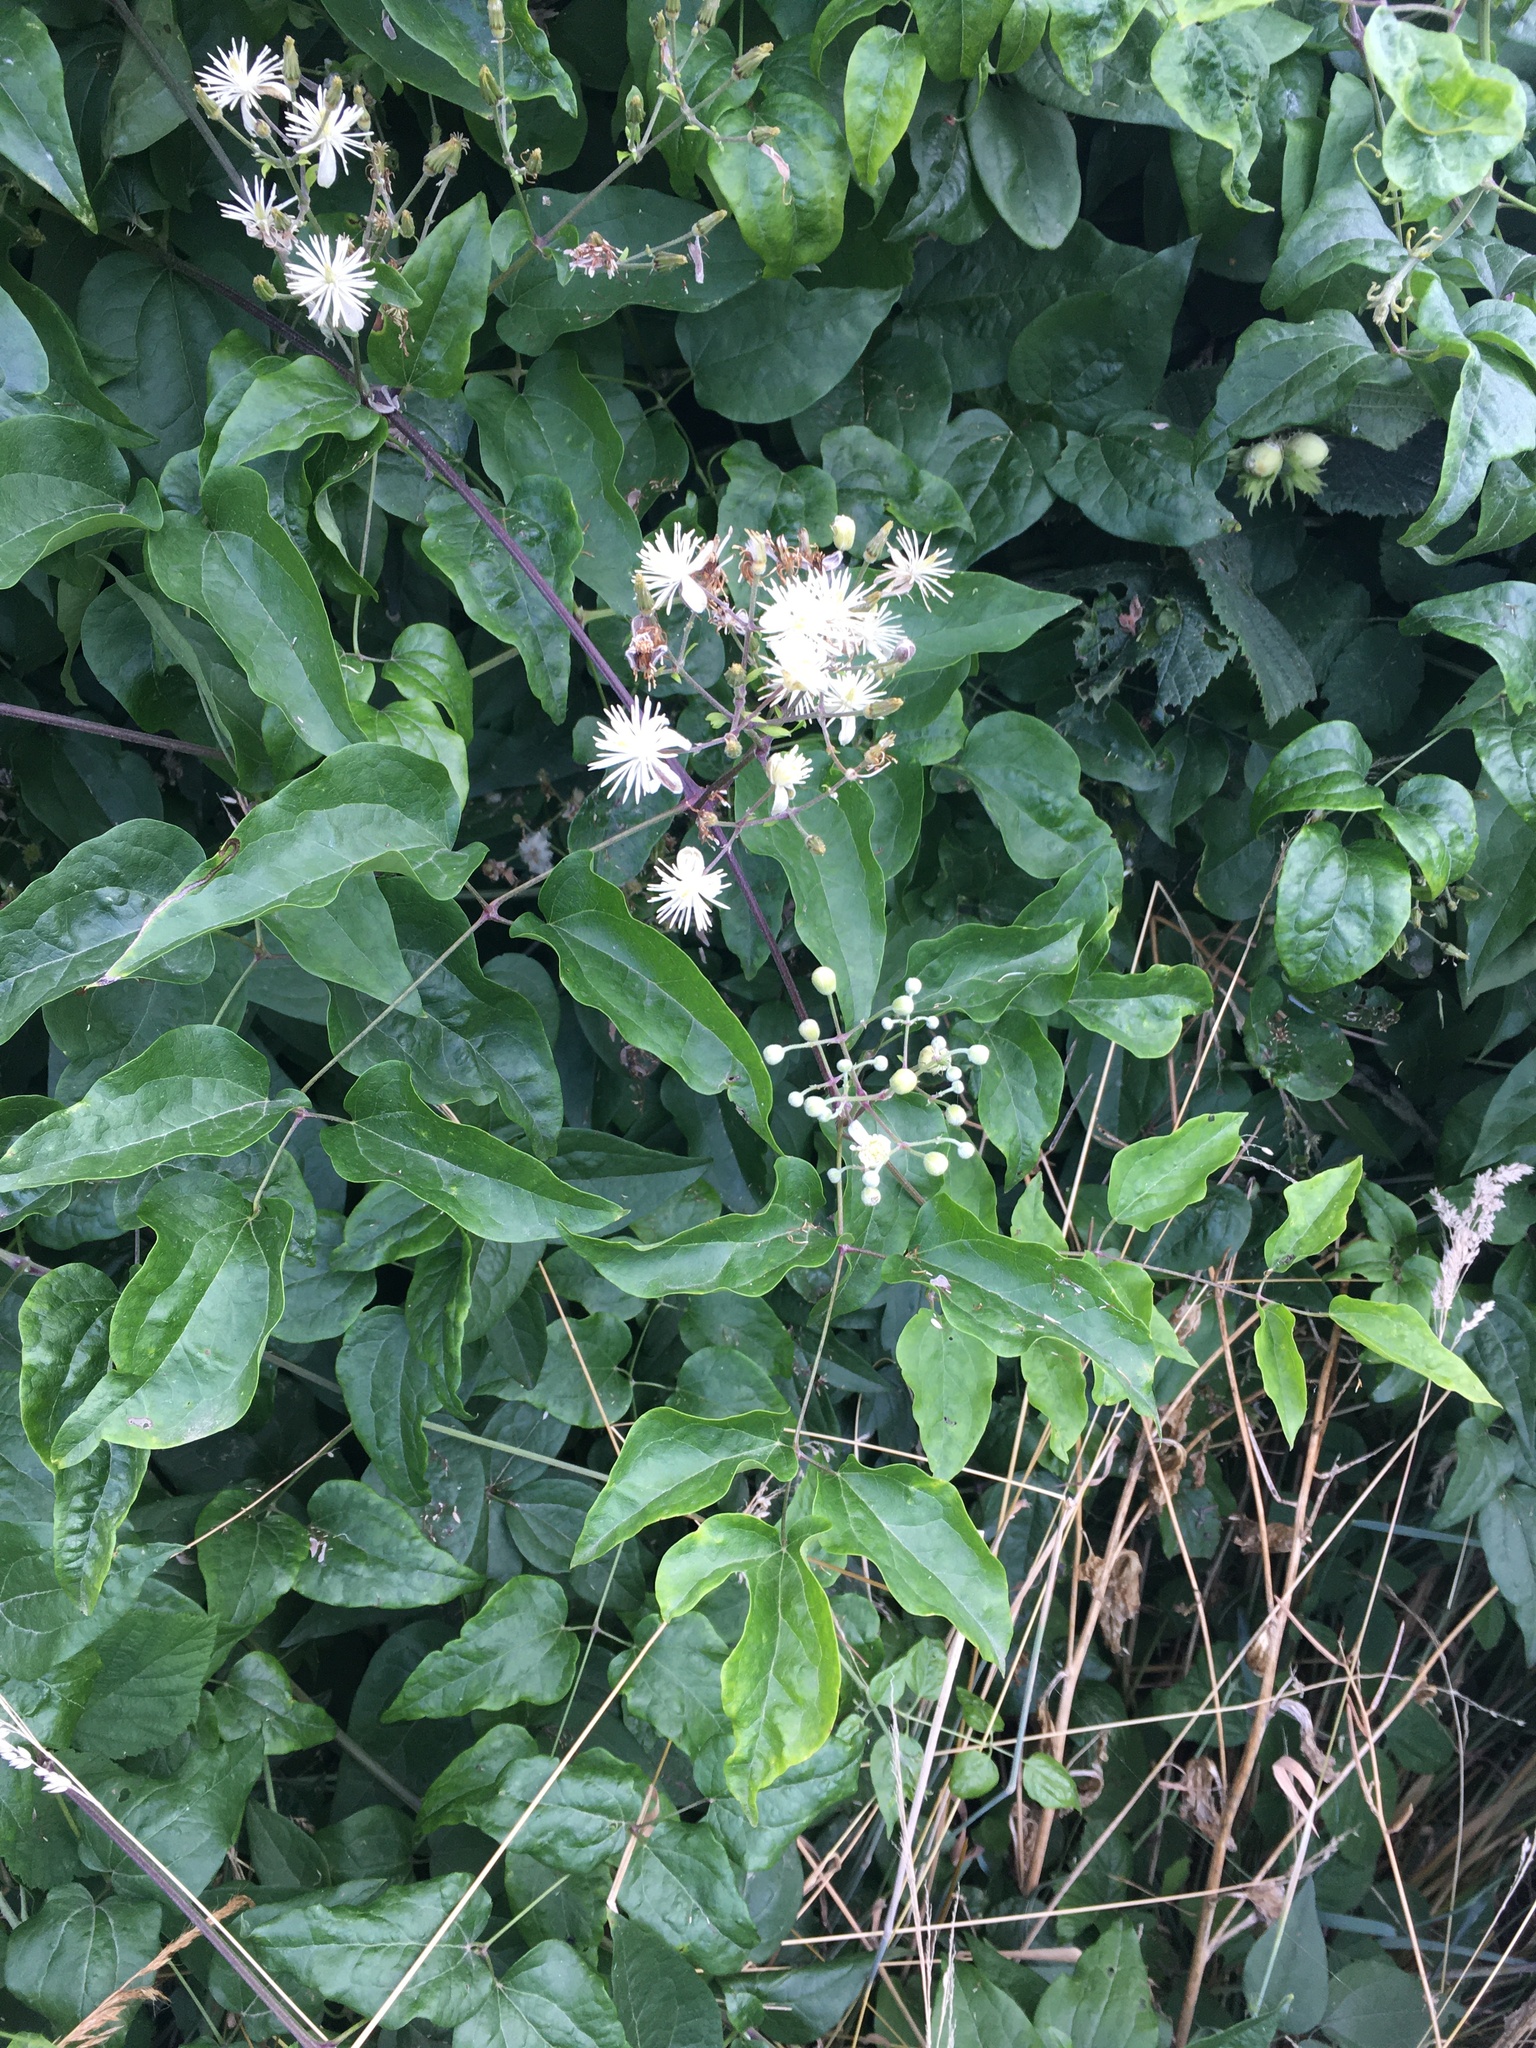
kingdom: Plantae
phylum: Tracheophyta
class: Magnoliopsida
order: Ranunculales
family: Ranunculaceae
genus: Clematis
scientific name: Clematis vitalba
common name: Evergreen clematis
